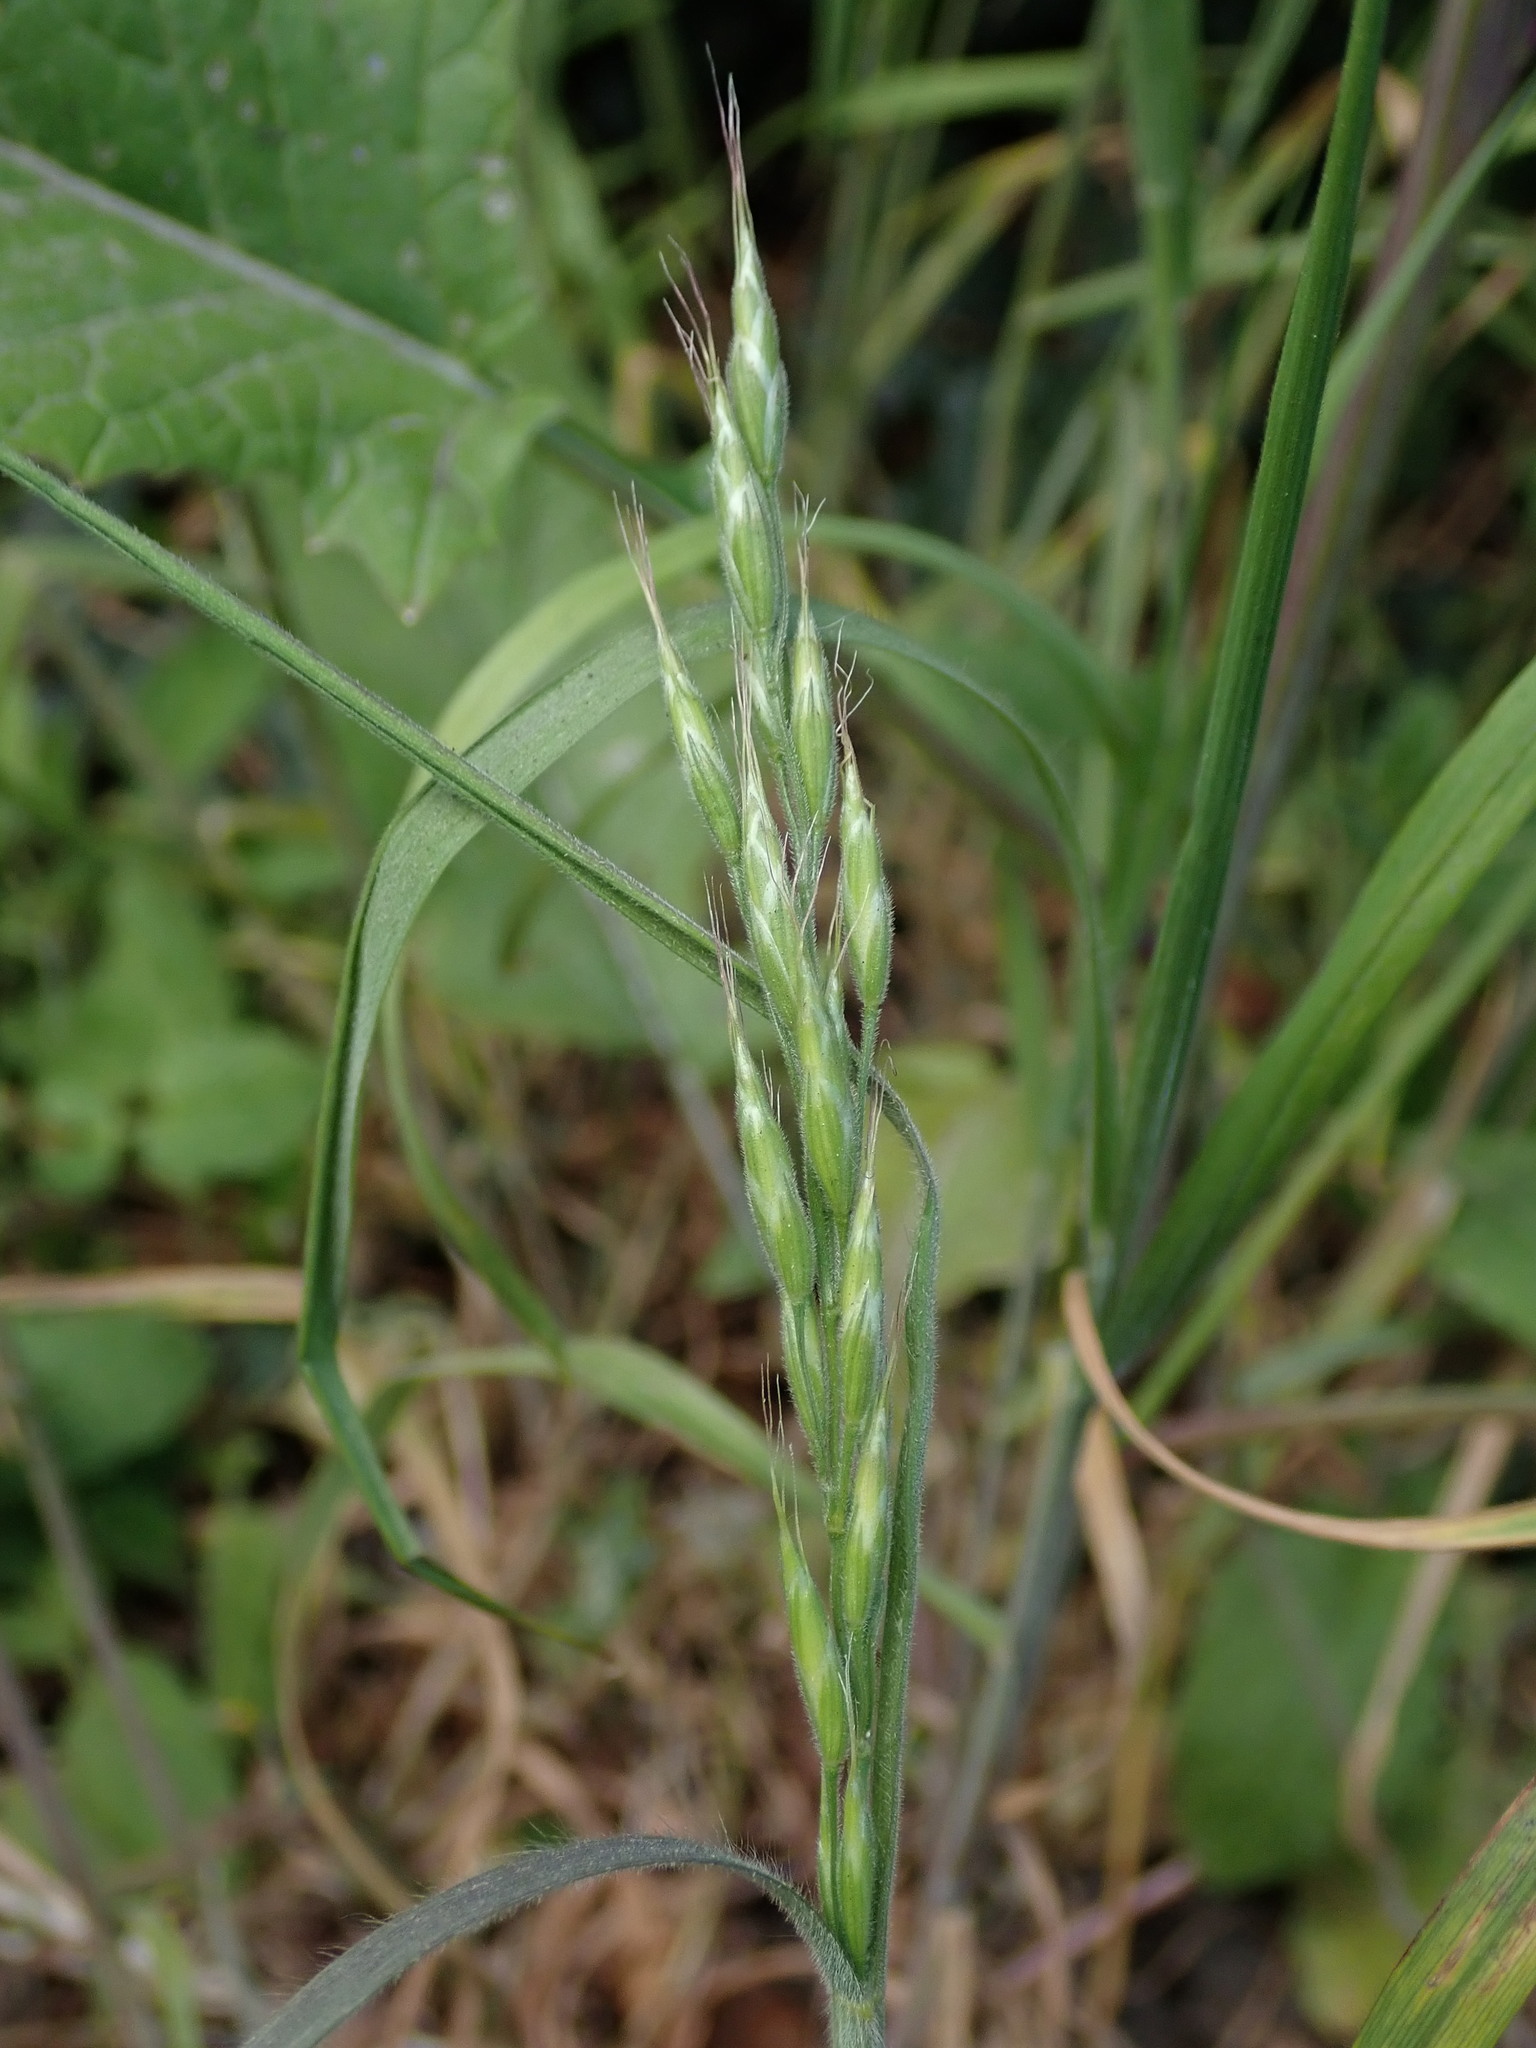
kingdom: Plantae
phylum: Tracheophyta
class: Liliopsida
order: Poales
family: Poaceae
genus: Bromus
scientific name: Bromus hordeaceus
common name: Soft brome
